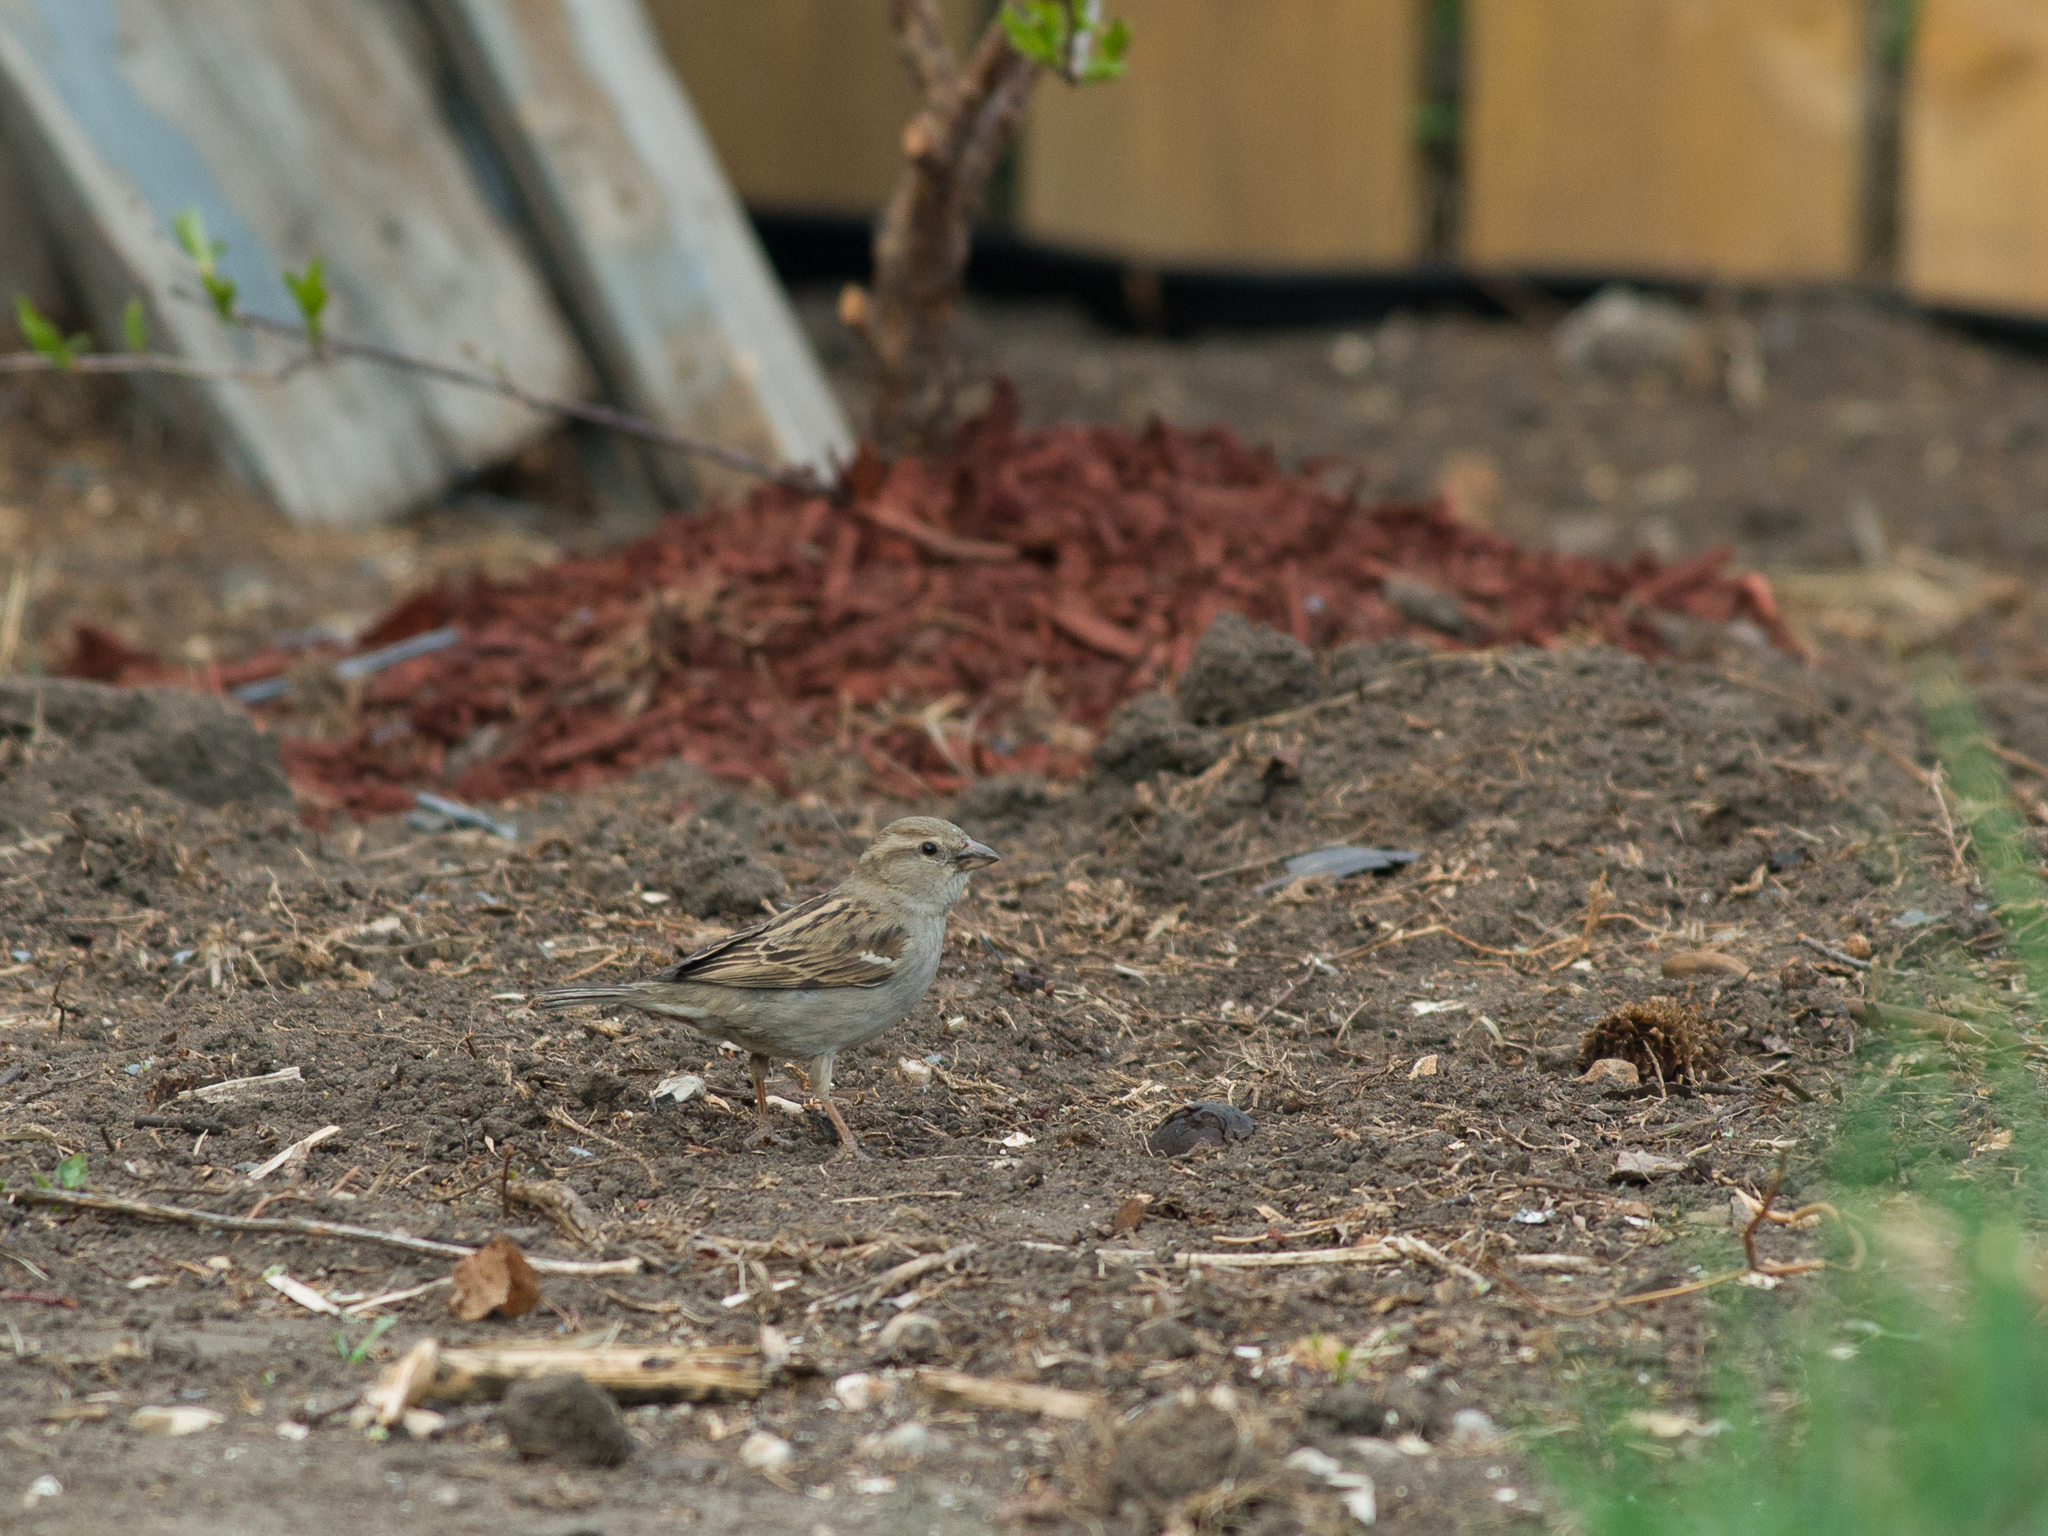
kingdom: Animalia
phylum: Chordata
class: Aves
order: Passeriformes
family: Passeridae
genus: Passer
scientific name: Passer domesticus
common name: House sparrow
